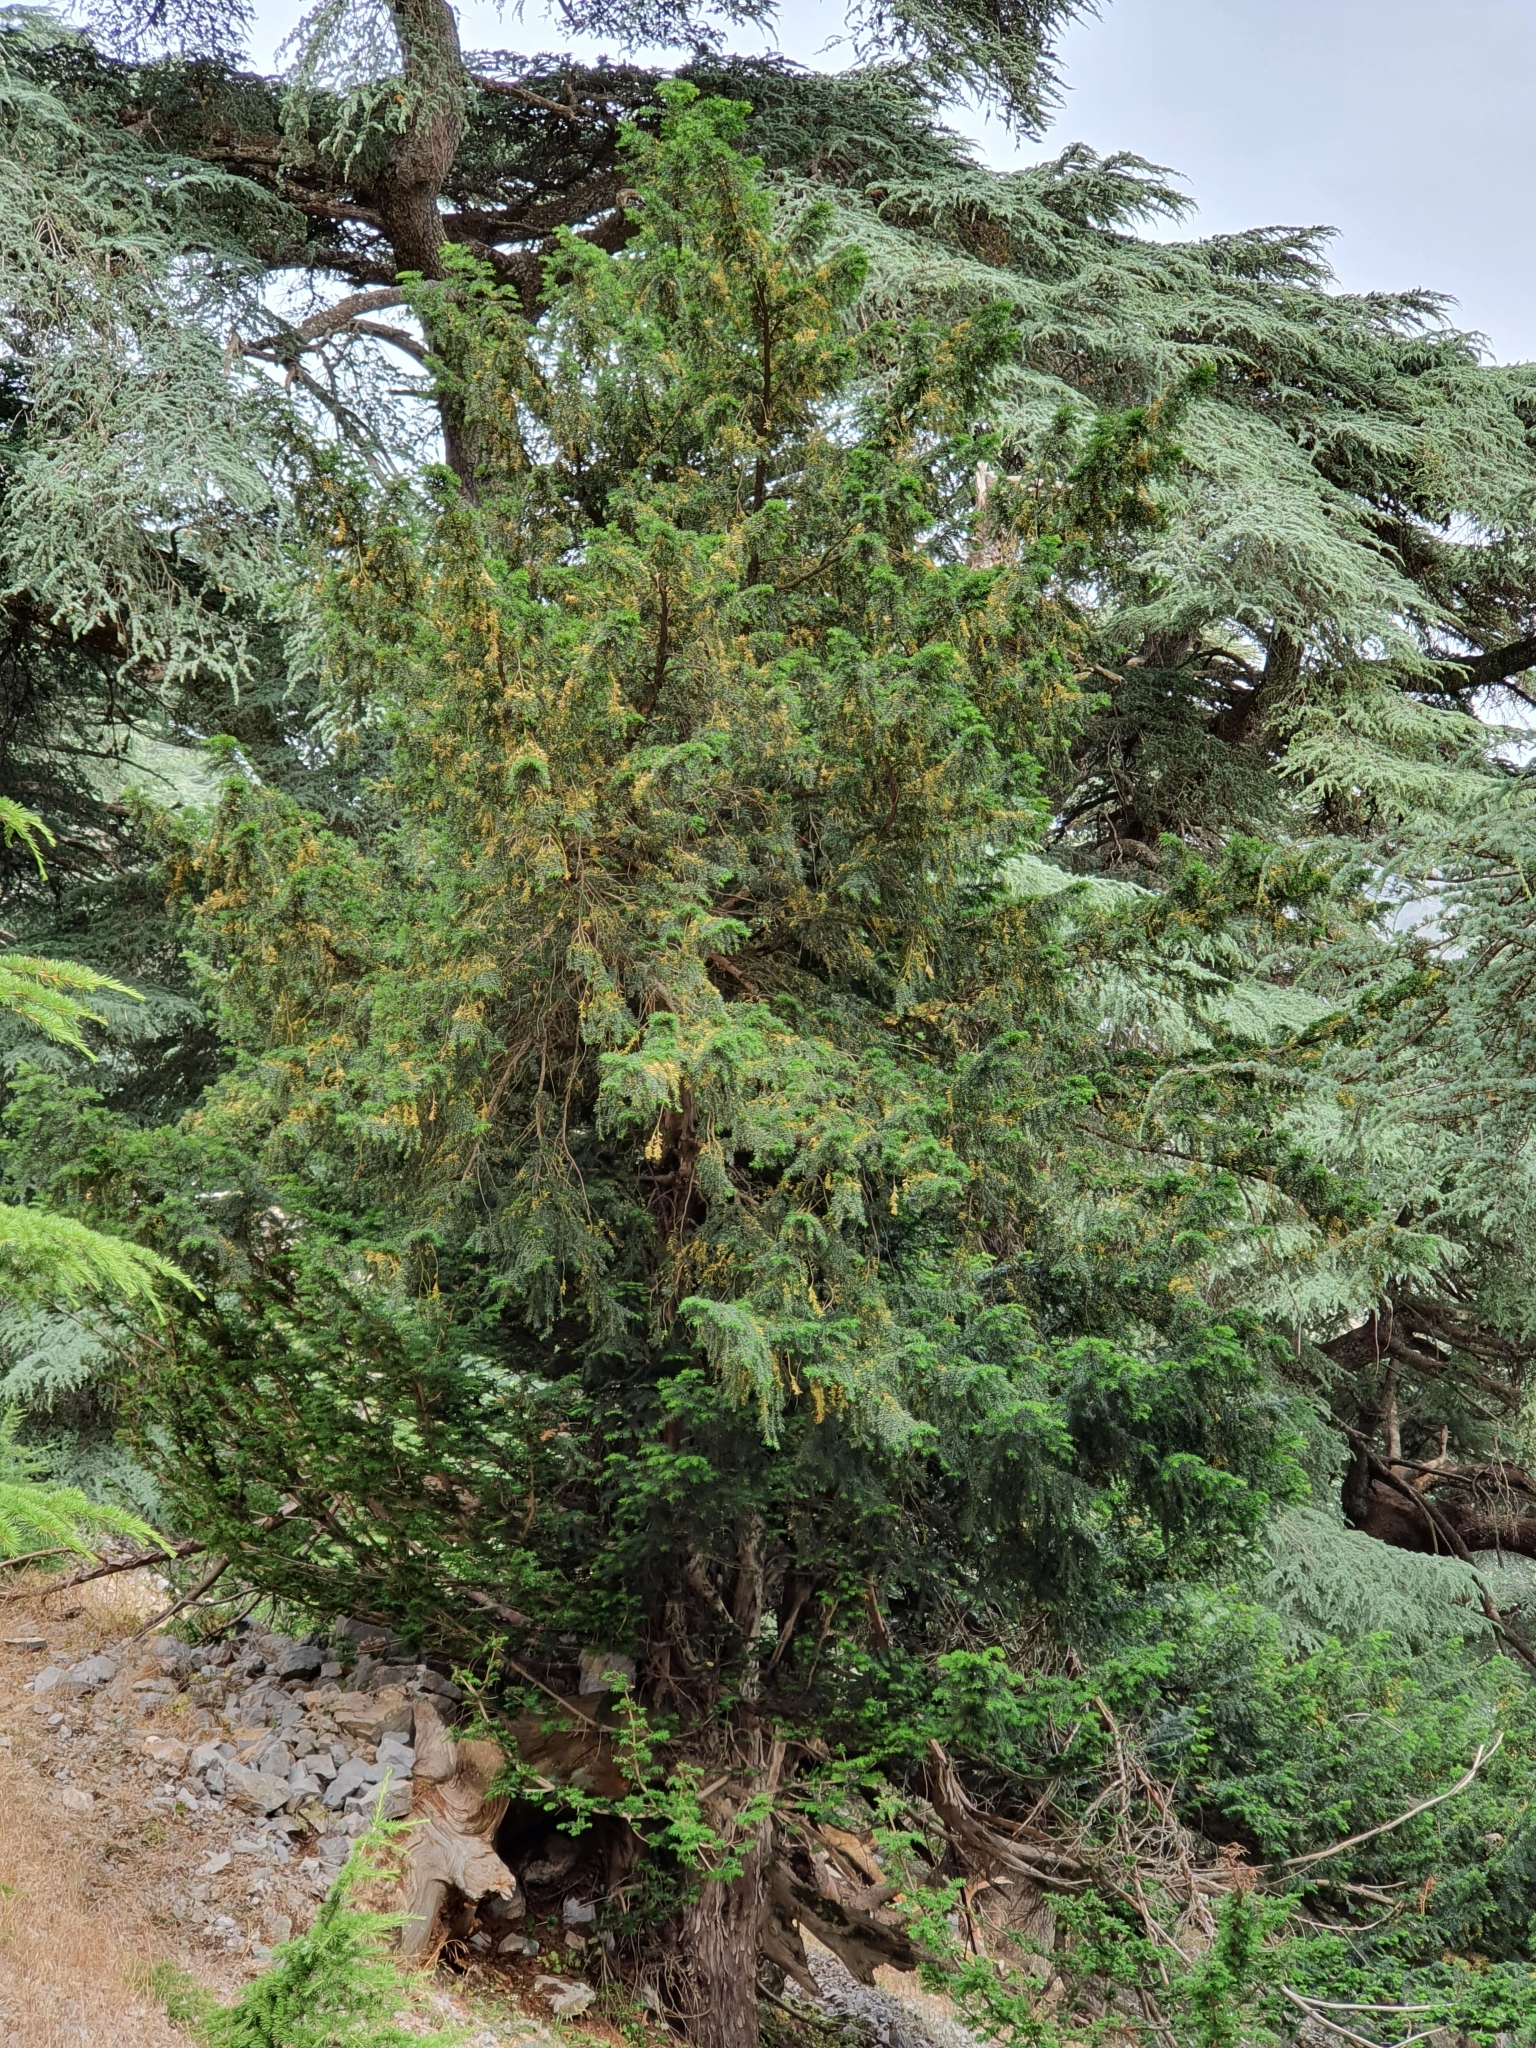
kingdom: Plantae
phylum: Tracheophyta
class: Pinopsida
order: Pinales
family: Taxaceae
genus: Taxus
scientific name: Taxus baccata
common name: Yew
